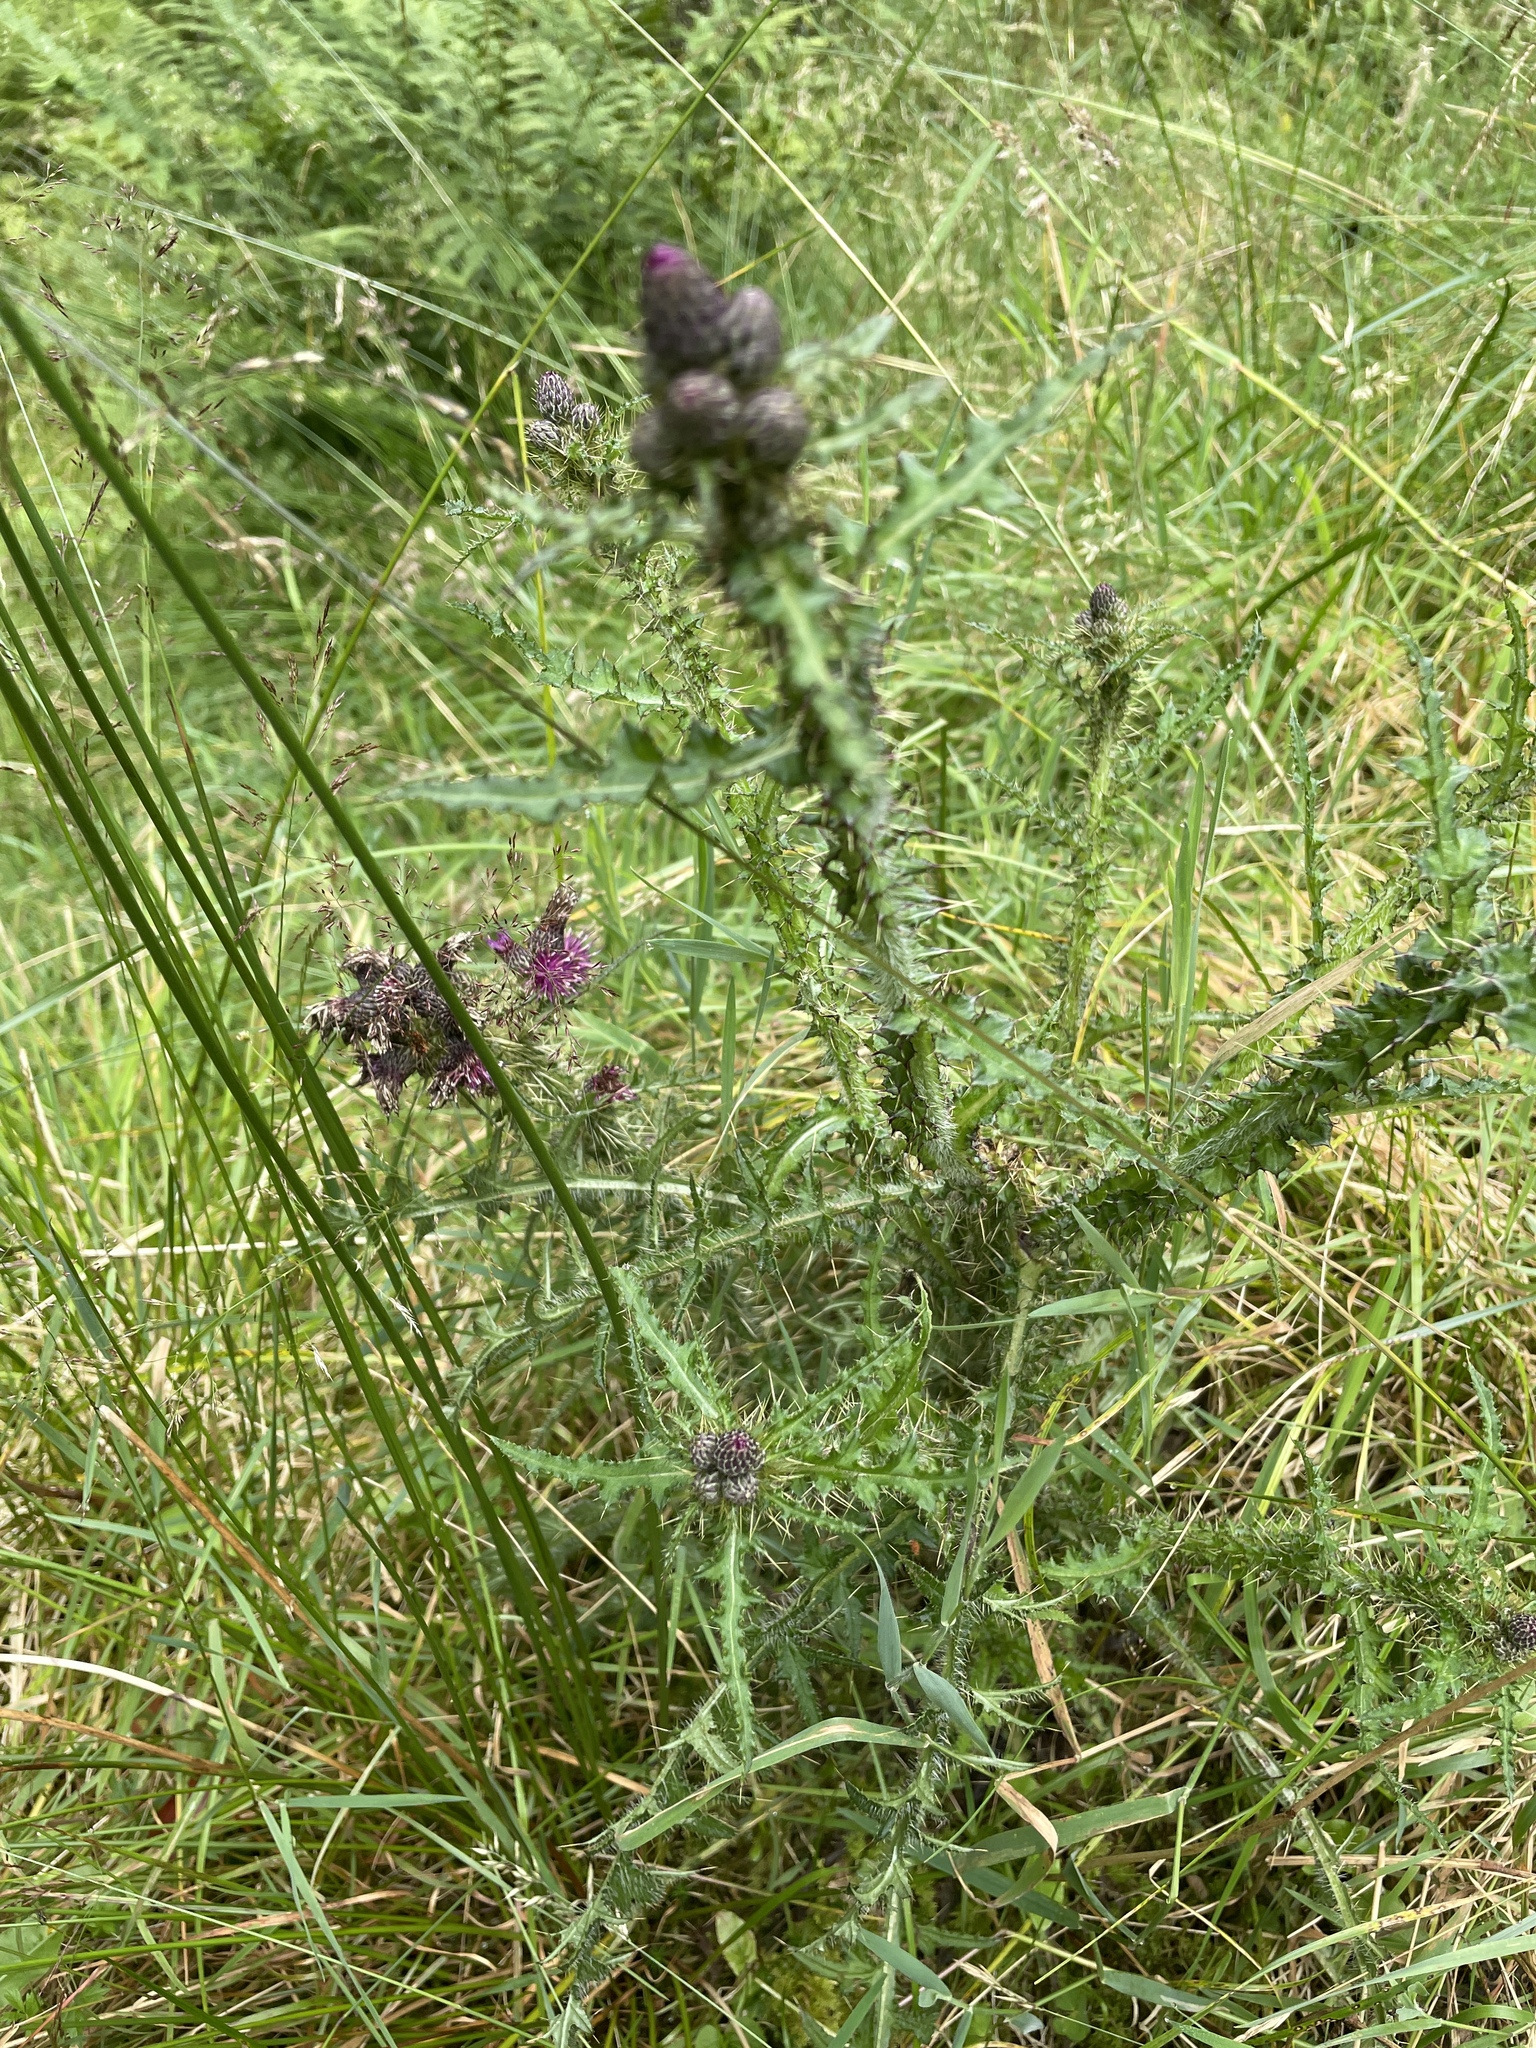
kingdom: Plantae
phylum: Tracheophyta
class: Magnoliopsida
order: Asterales
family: Asteraceae
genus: Cirsium
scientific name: Cirsium palustre
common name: Marsh thistle
